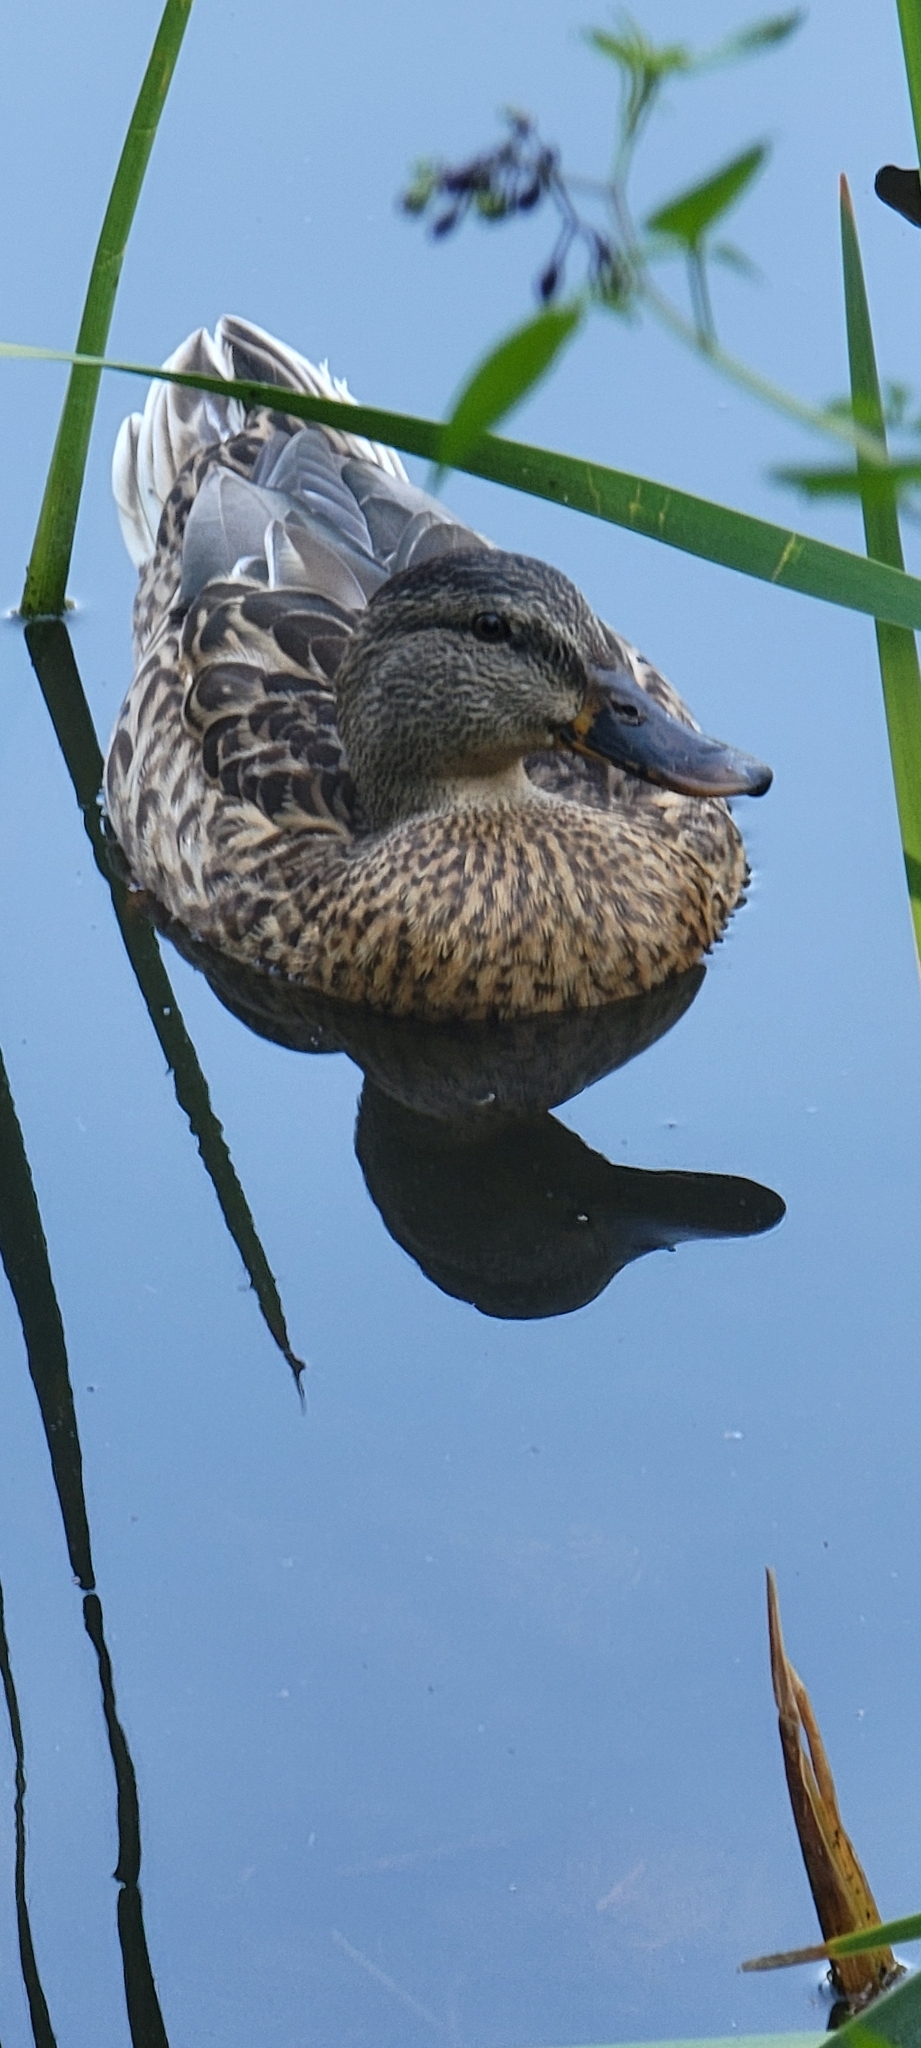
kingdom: Animalia
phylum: Chordata
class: Aves
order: Anseriformes
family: Anatidae
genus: Anas
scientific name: Anas platyrhynchos
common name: Mallard
